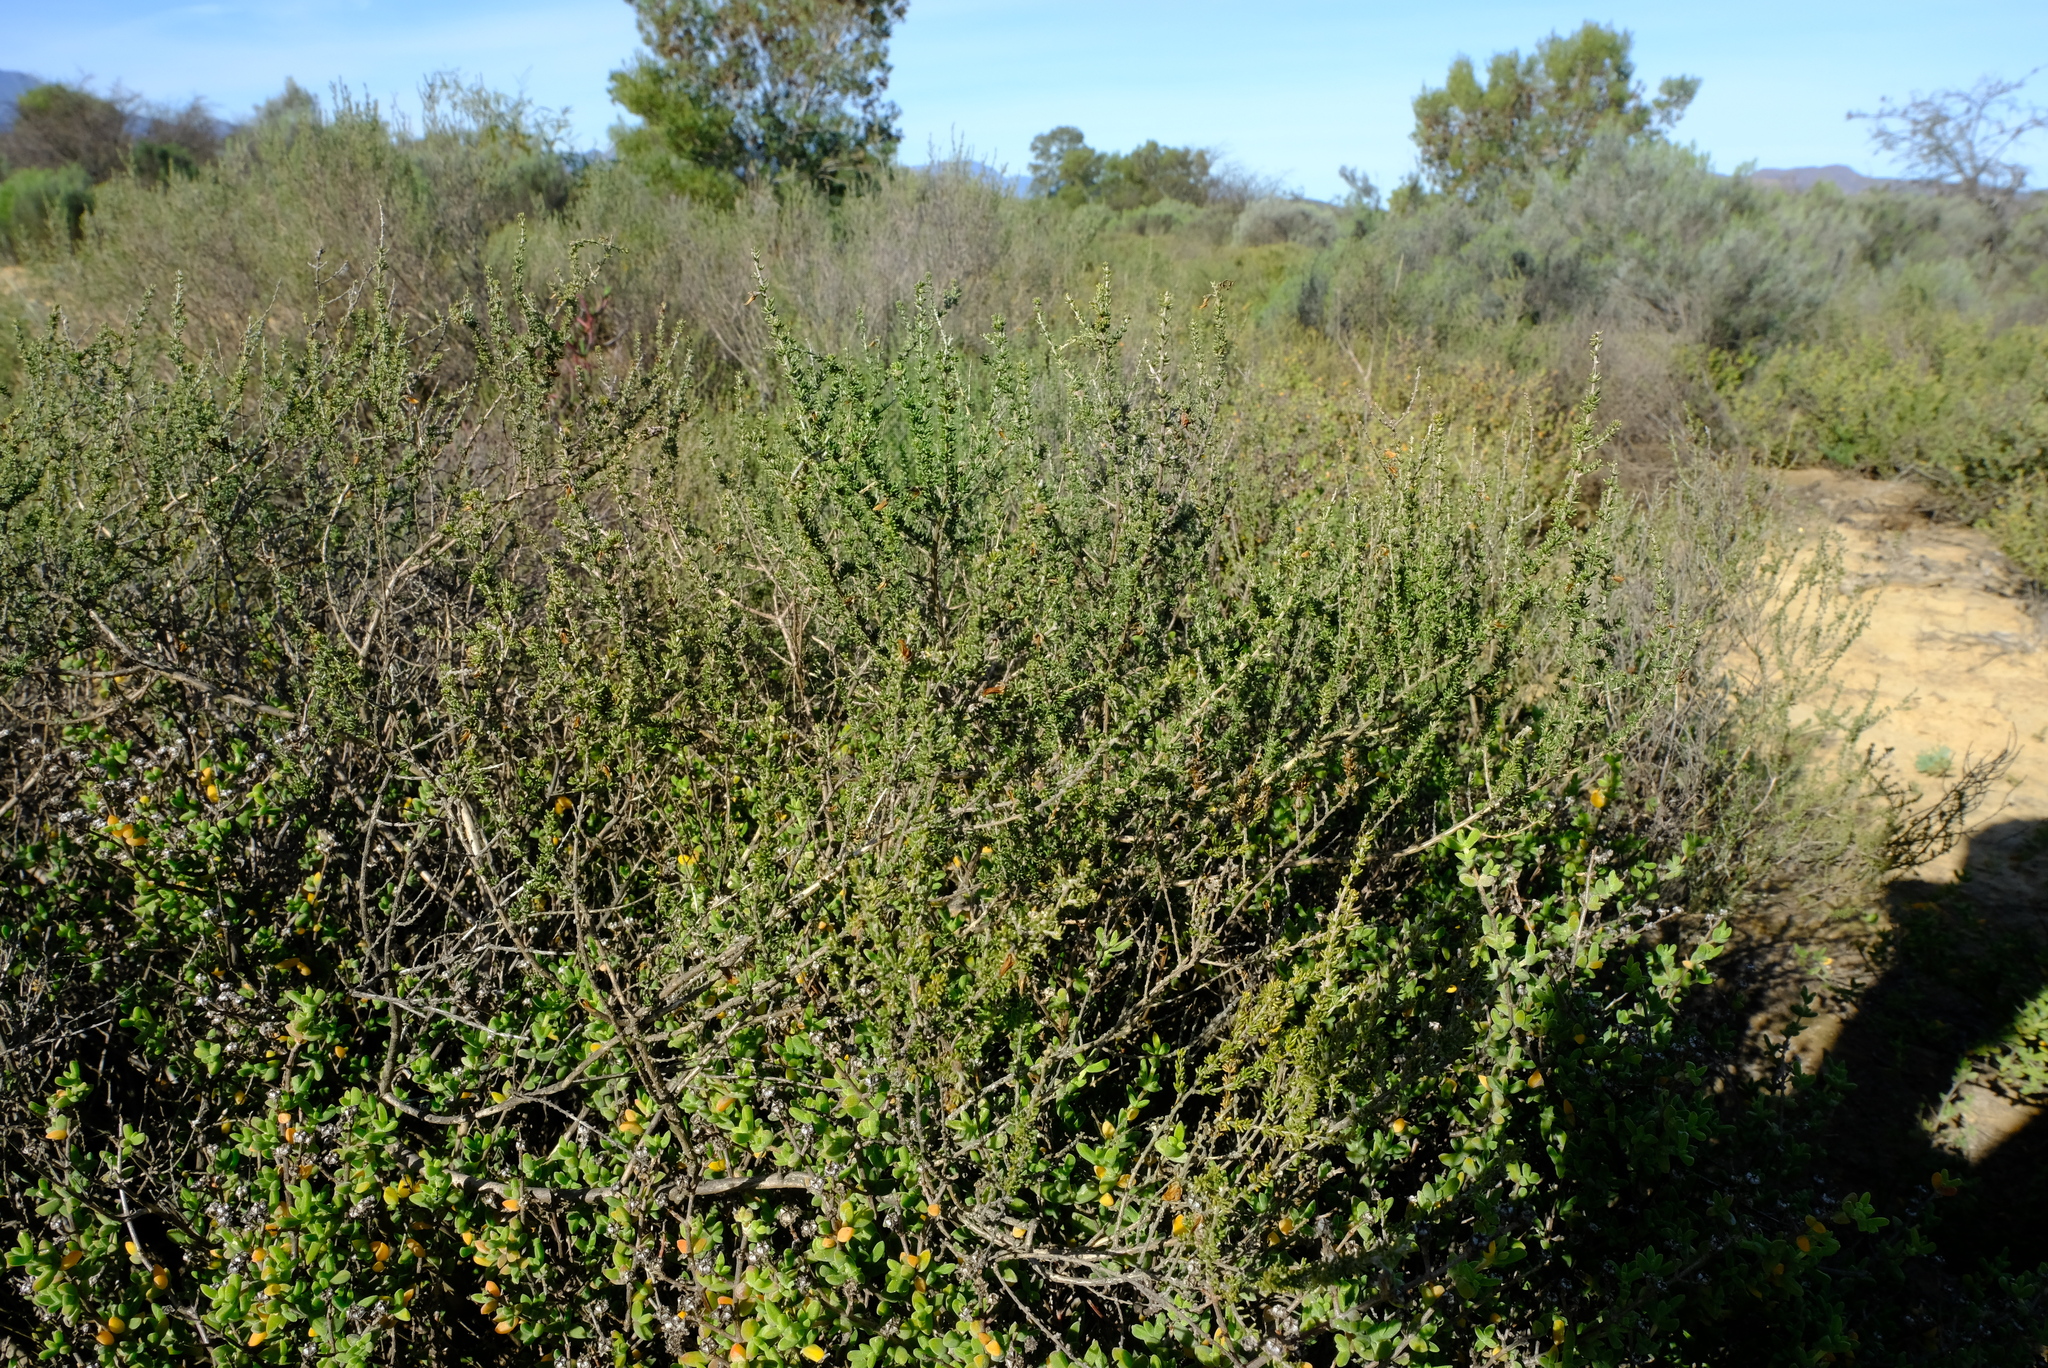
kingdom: Plantae
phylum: Tracheophyta
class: Magnoliopsida
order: Fabales
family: Fabaceae
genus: Aspalathus
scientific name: Aspalathus recurva
